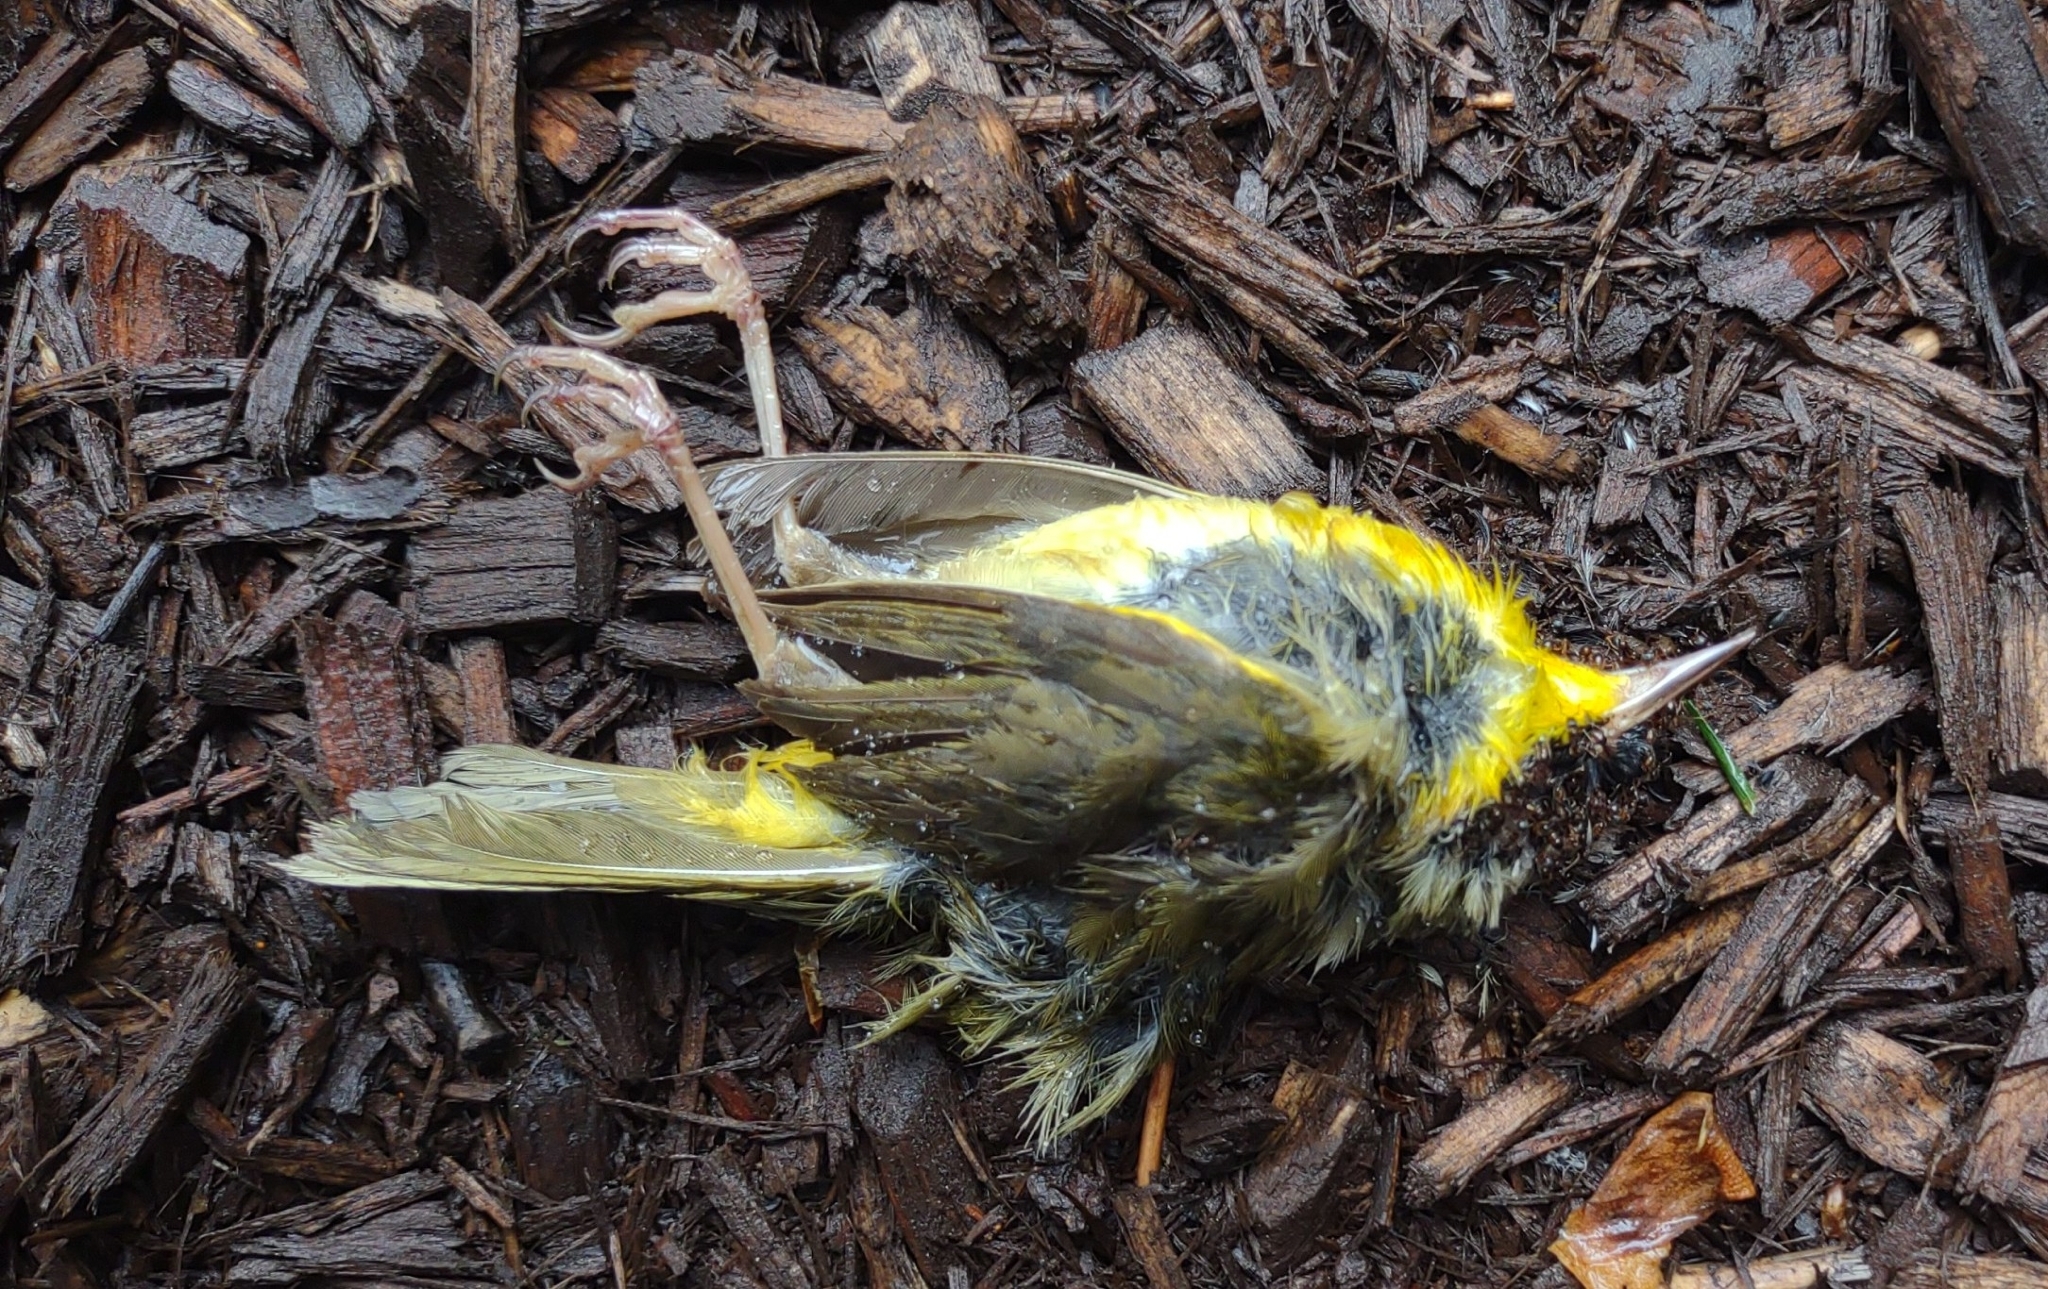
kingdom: Animalia
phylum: Chordata
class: Aves
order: Passeriformes
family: Parulidae
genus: Geothlypis
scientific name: Geothlypis trichas
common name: Common yellowthroat
